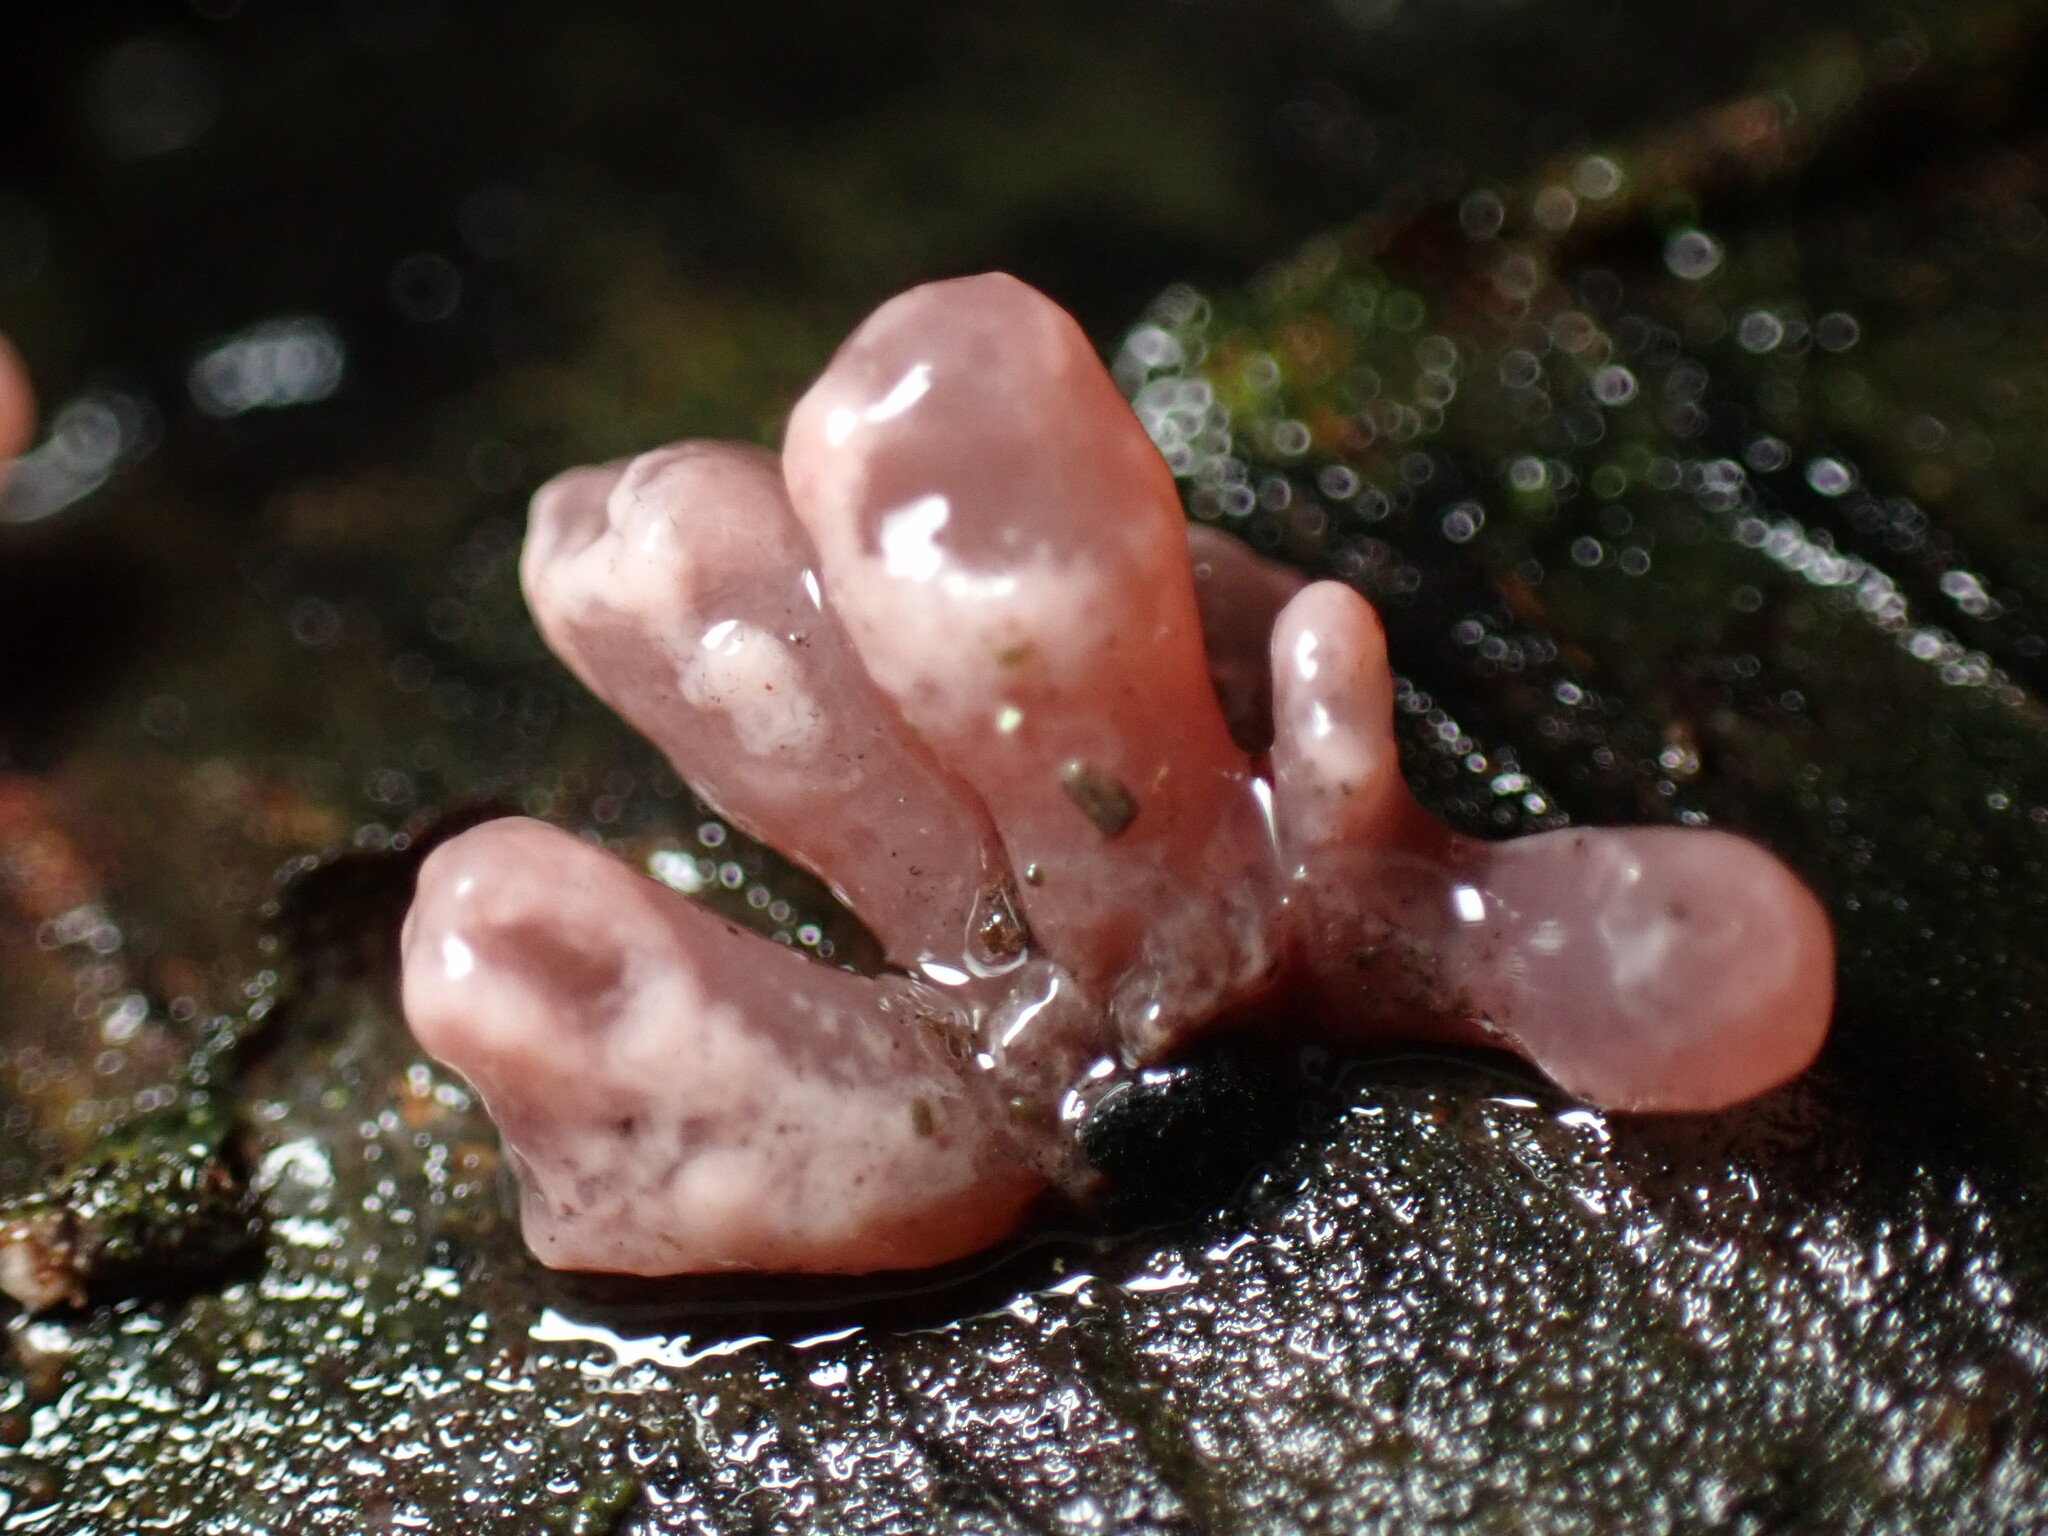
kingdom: Fungi
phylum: Ascomycota
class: Leotiomycetes
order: Helotiales
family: Gelatinodiscaceae
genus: Ascocoryne
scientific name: Ascocoryne sarcoides
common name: Purple jellydisc
